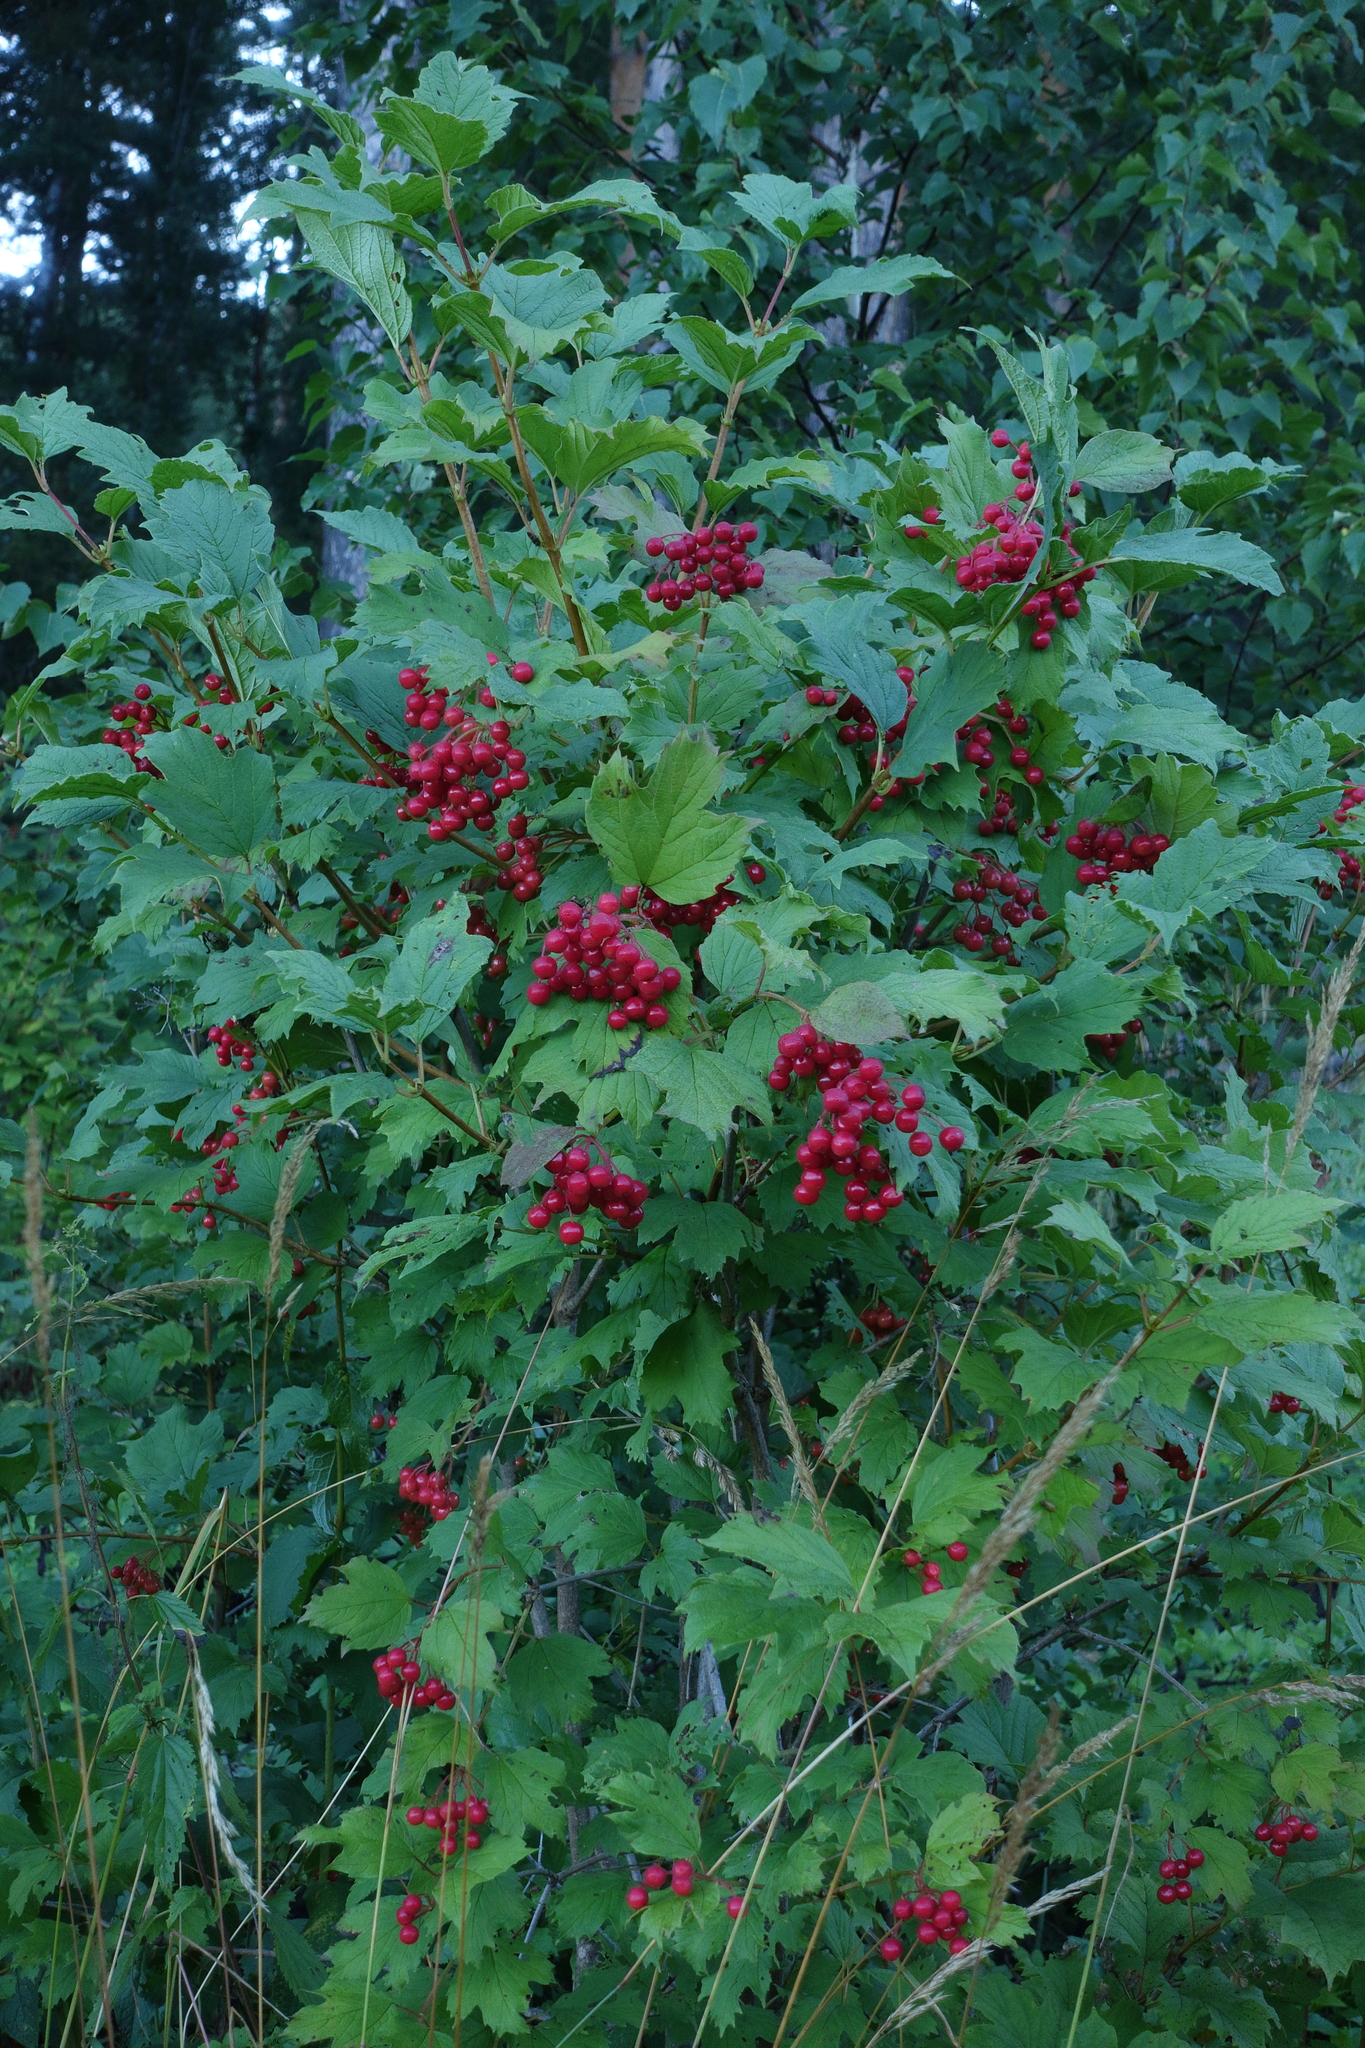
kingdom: Plantae
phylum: Tracheophyta
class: Magnoliopsida
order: Dipsacales
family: Viburnaceae
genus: Viburnum
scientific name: Viburnum opulus
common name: Guelder-rose
